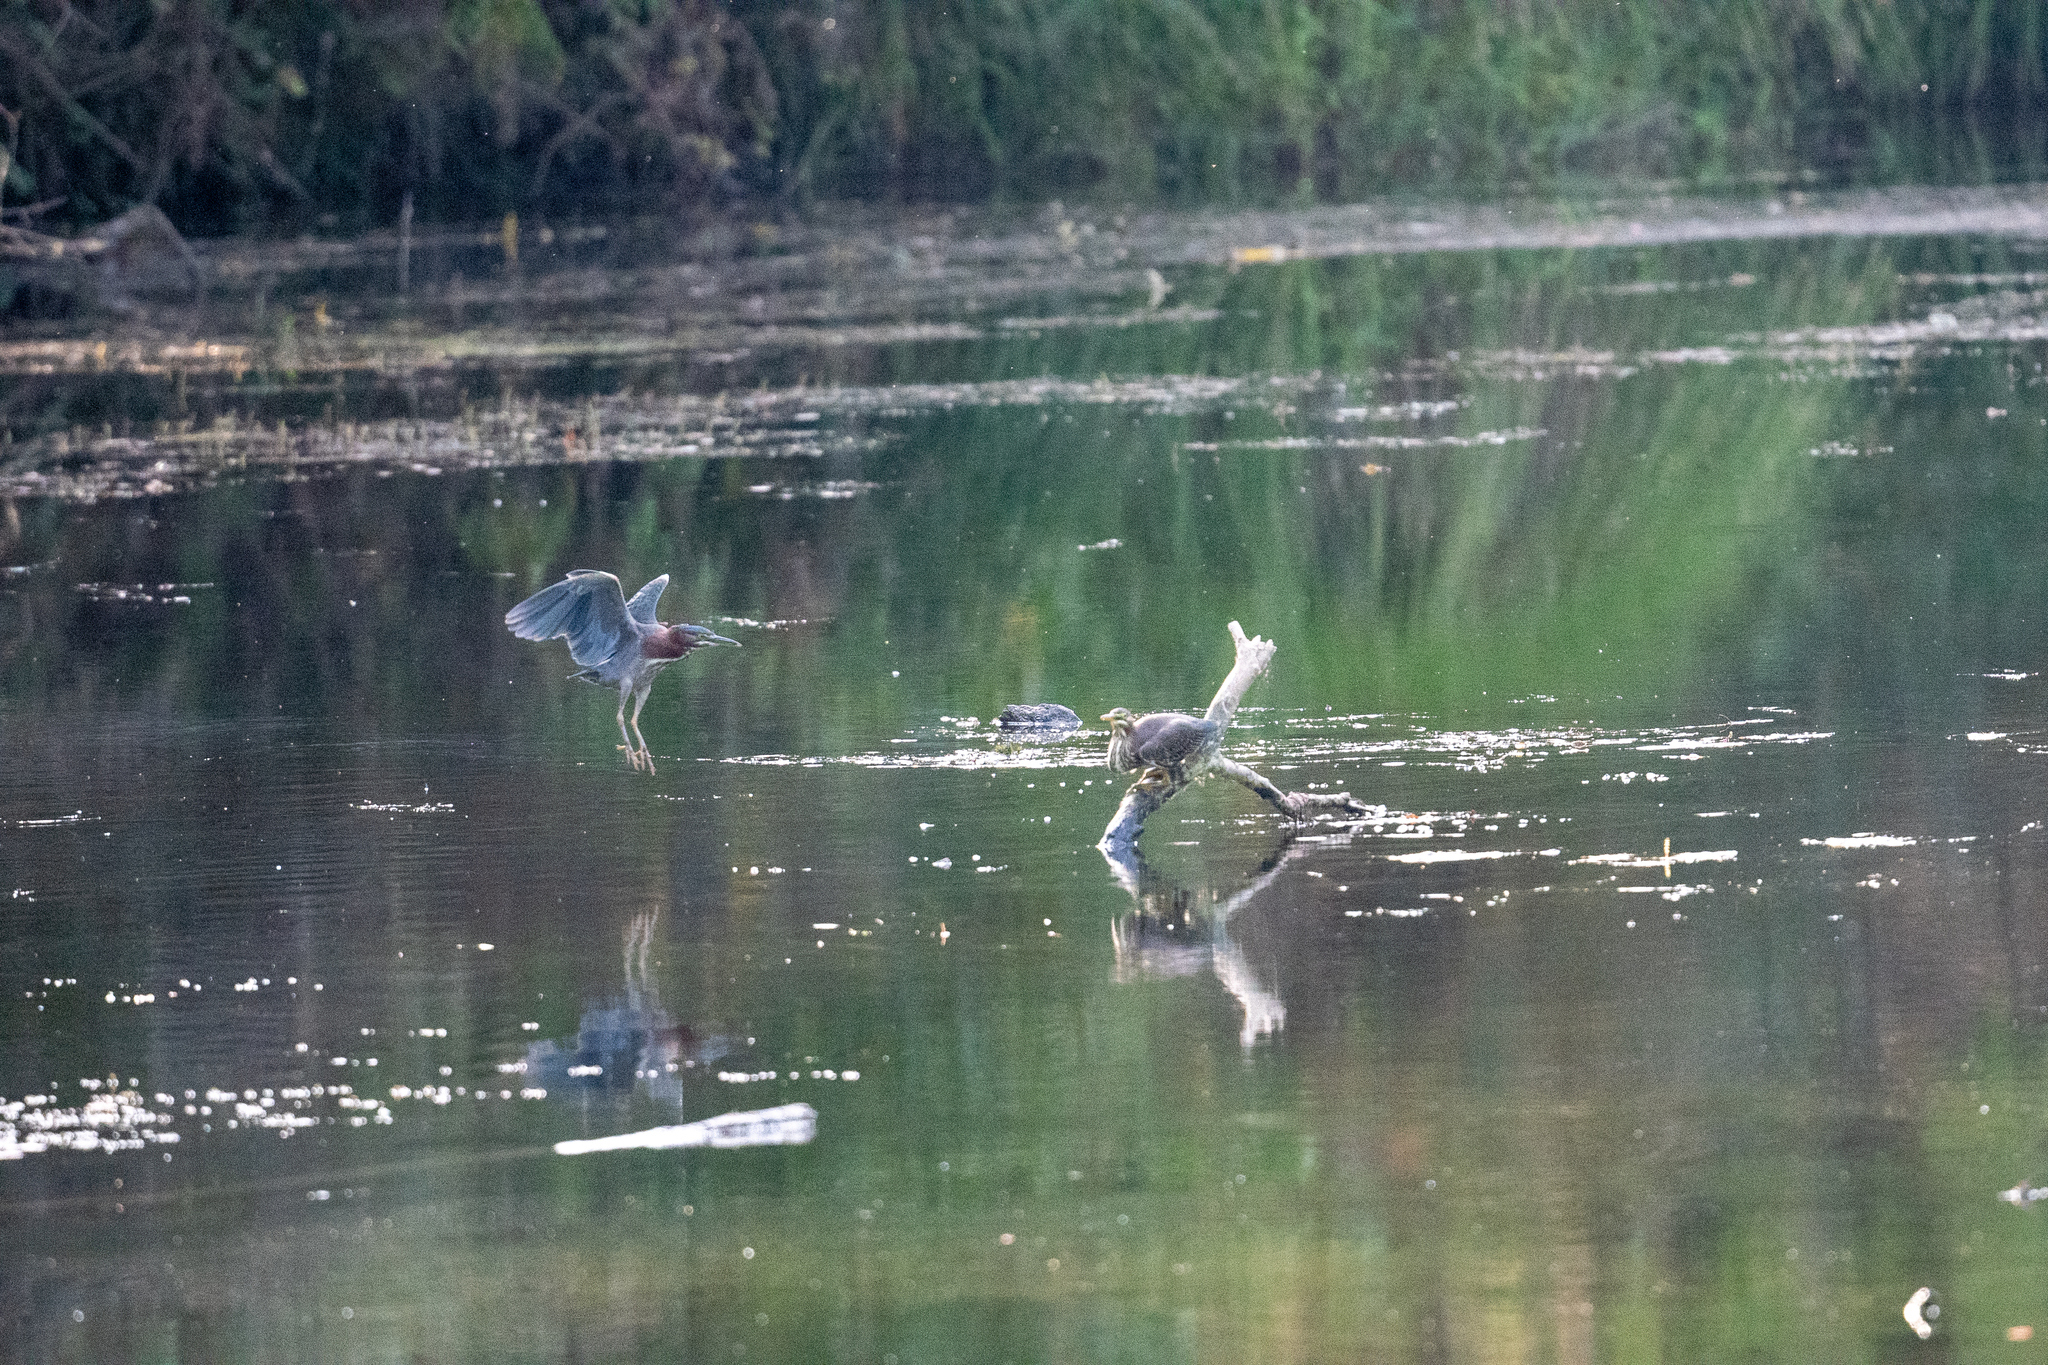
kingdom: Animalia
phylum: Chordata
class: Aves
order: Pelecaniformes
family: Ardeidae
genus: Butorides
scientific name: Butorides virescens
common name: Green heron
